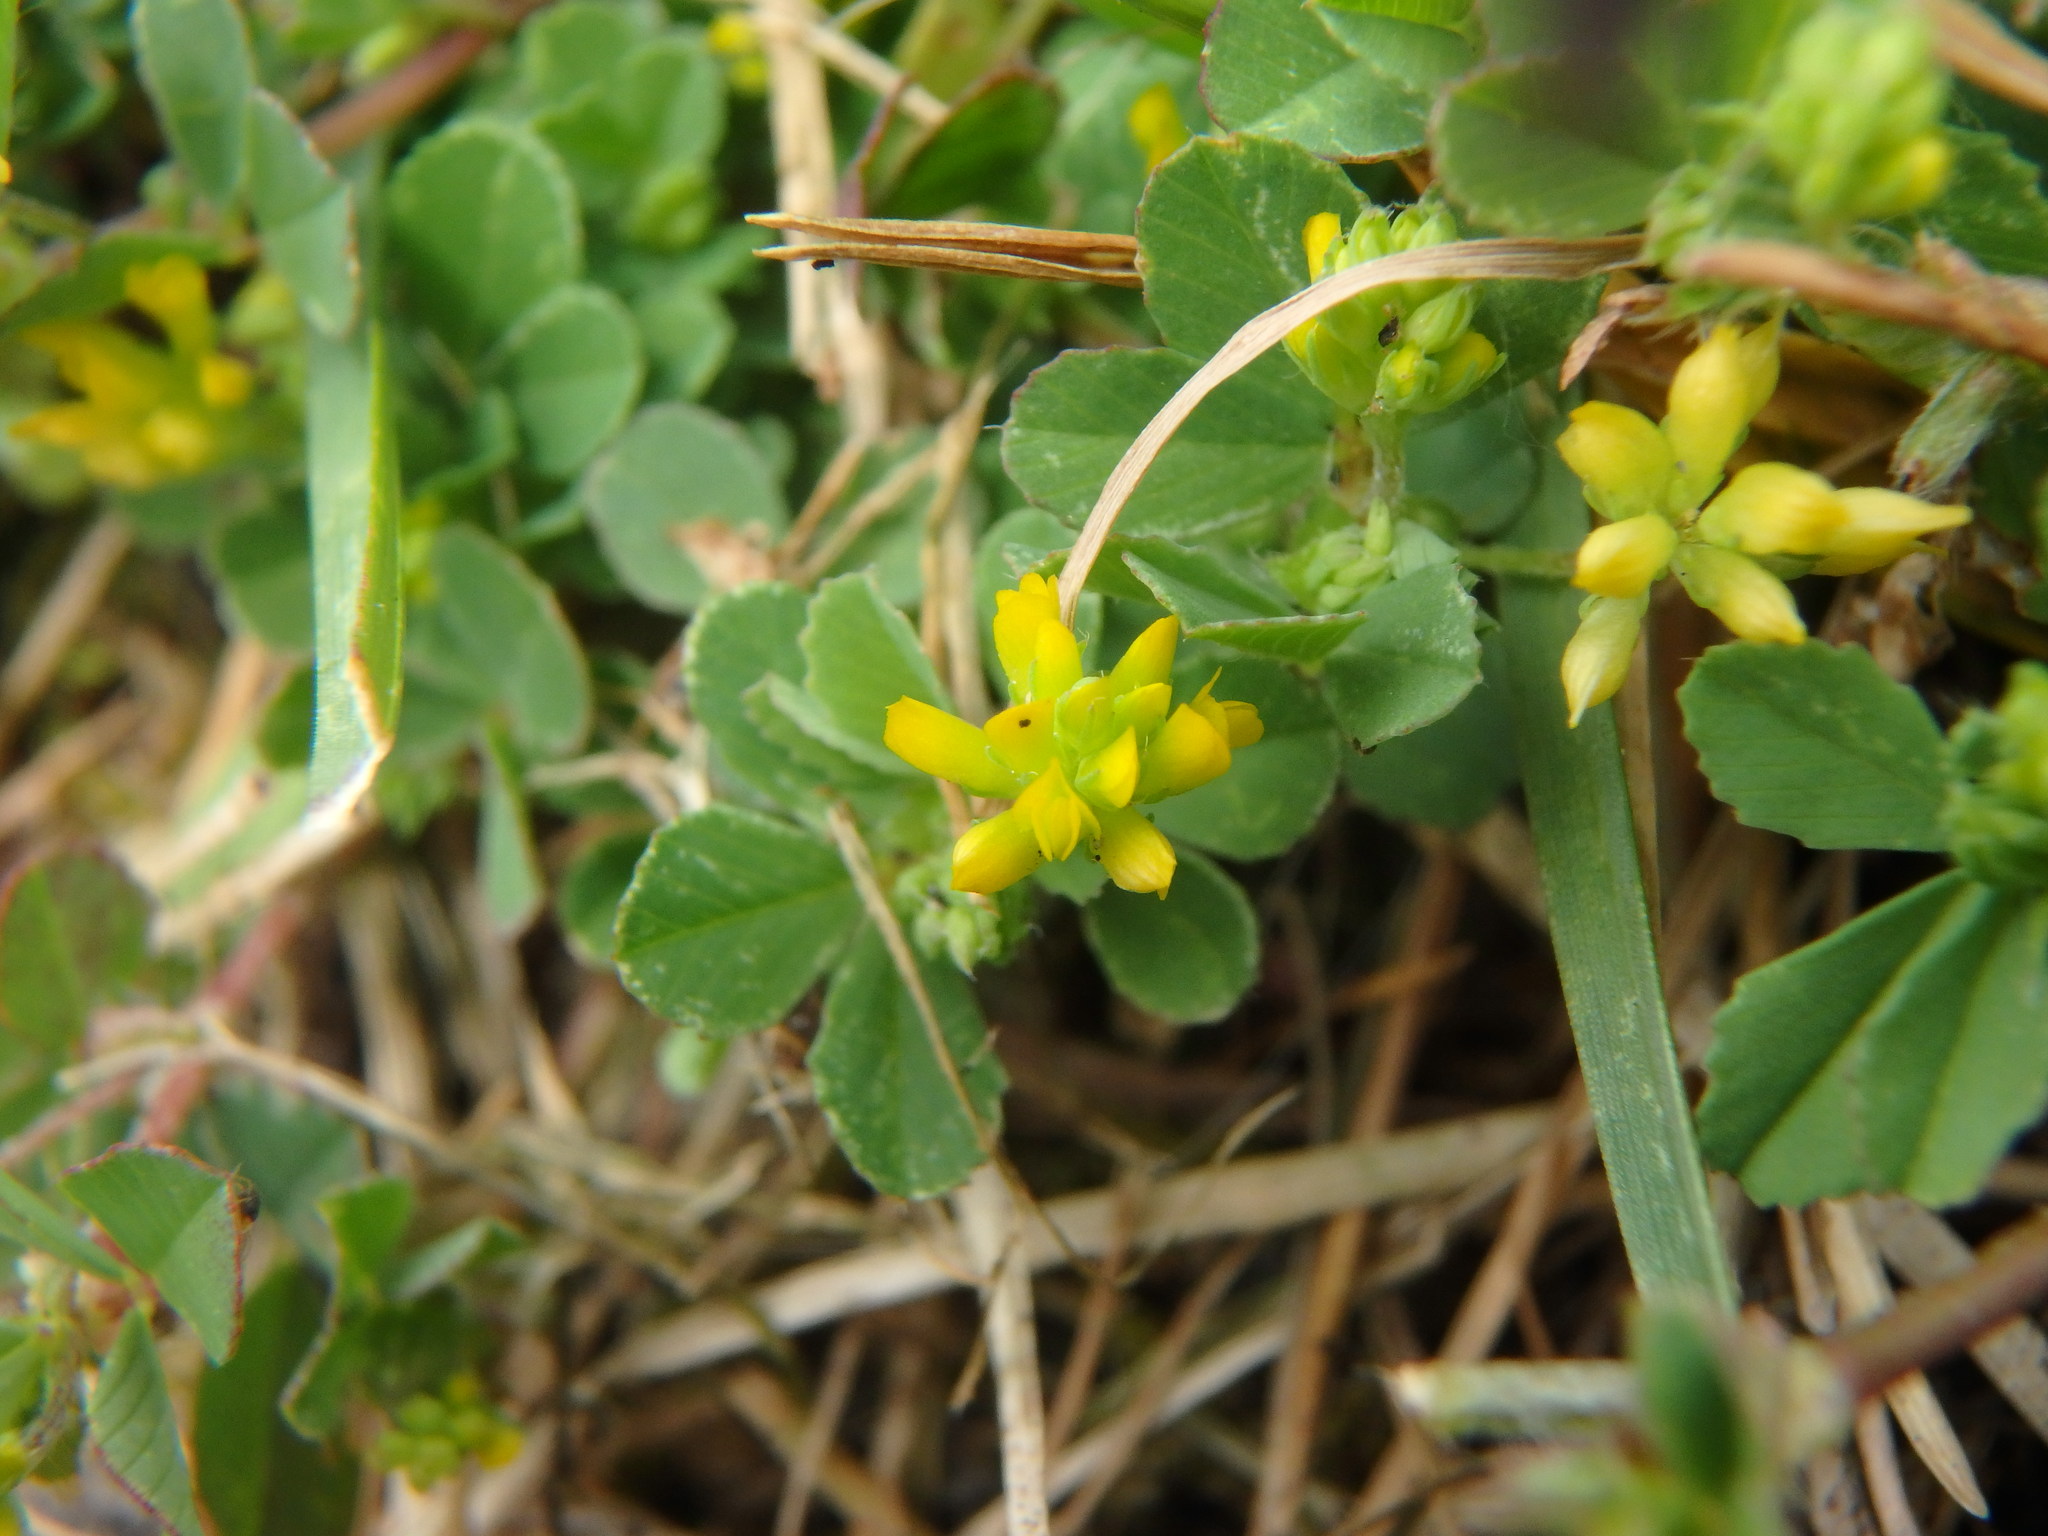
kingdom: Plantae
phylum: Tracheophyta
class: Magnoliopsida
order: Fabales
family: Fabaceae
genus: Trifolium
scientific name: Trifolium dubium
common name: Suckling clover
